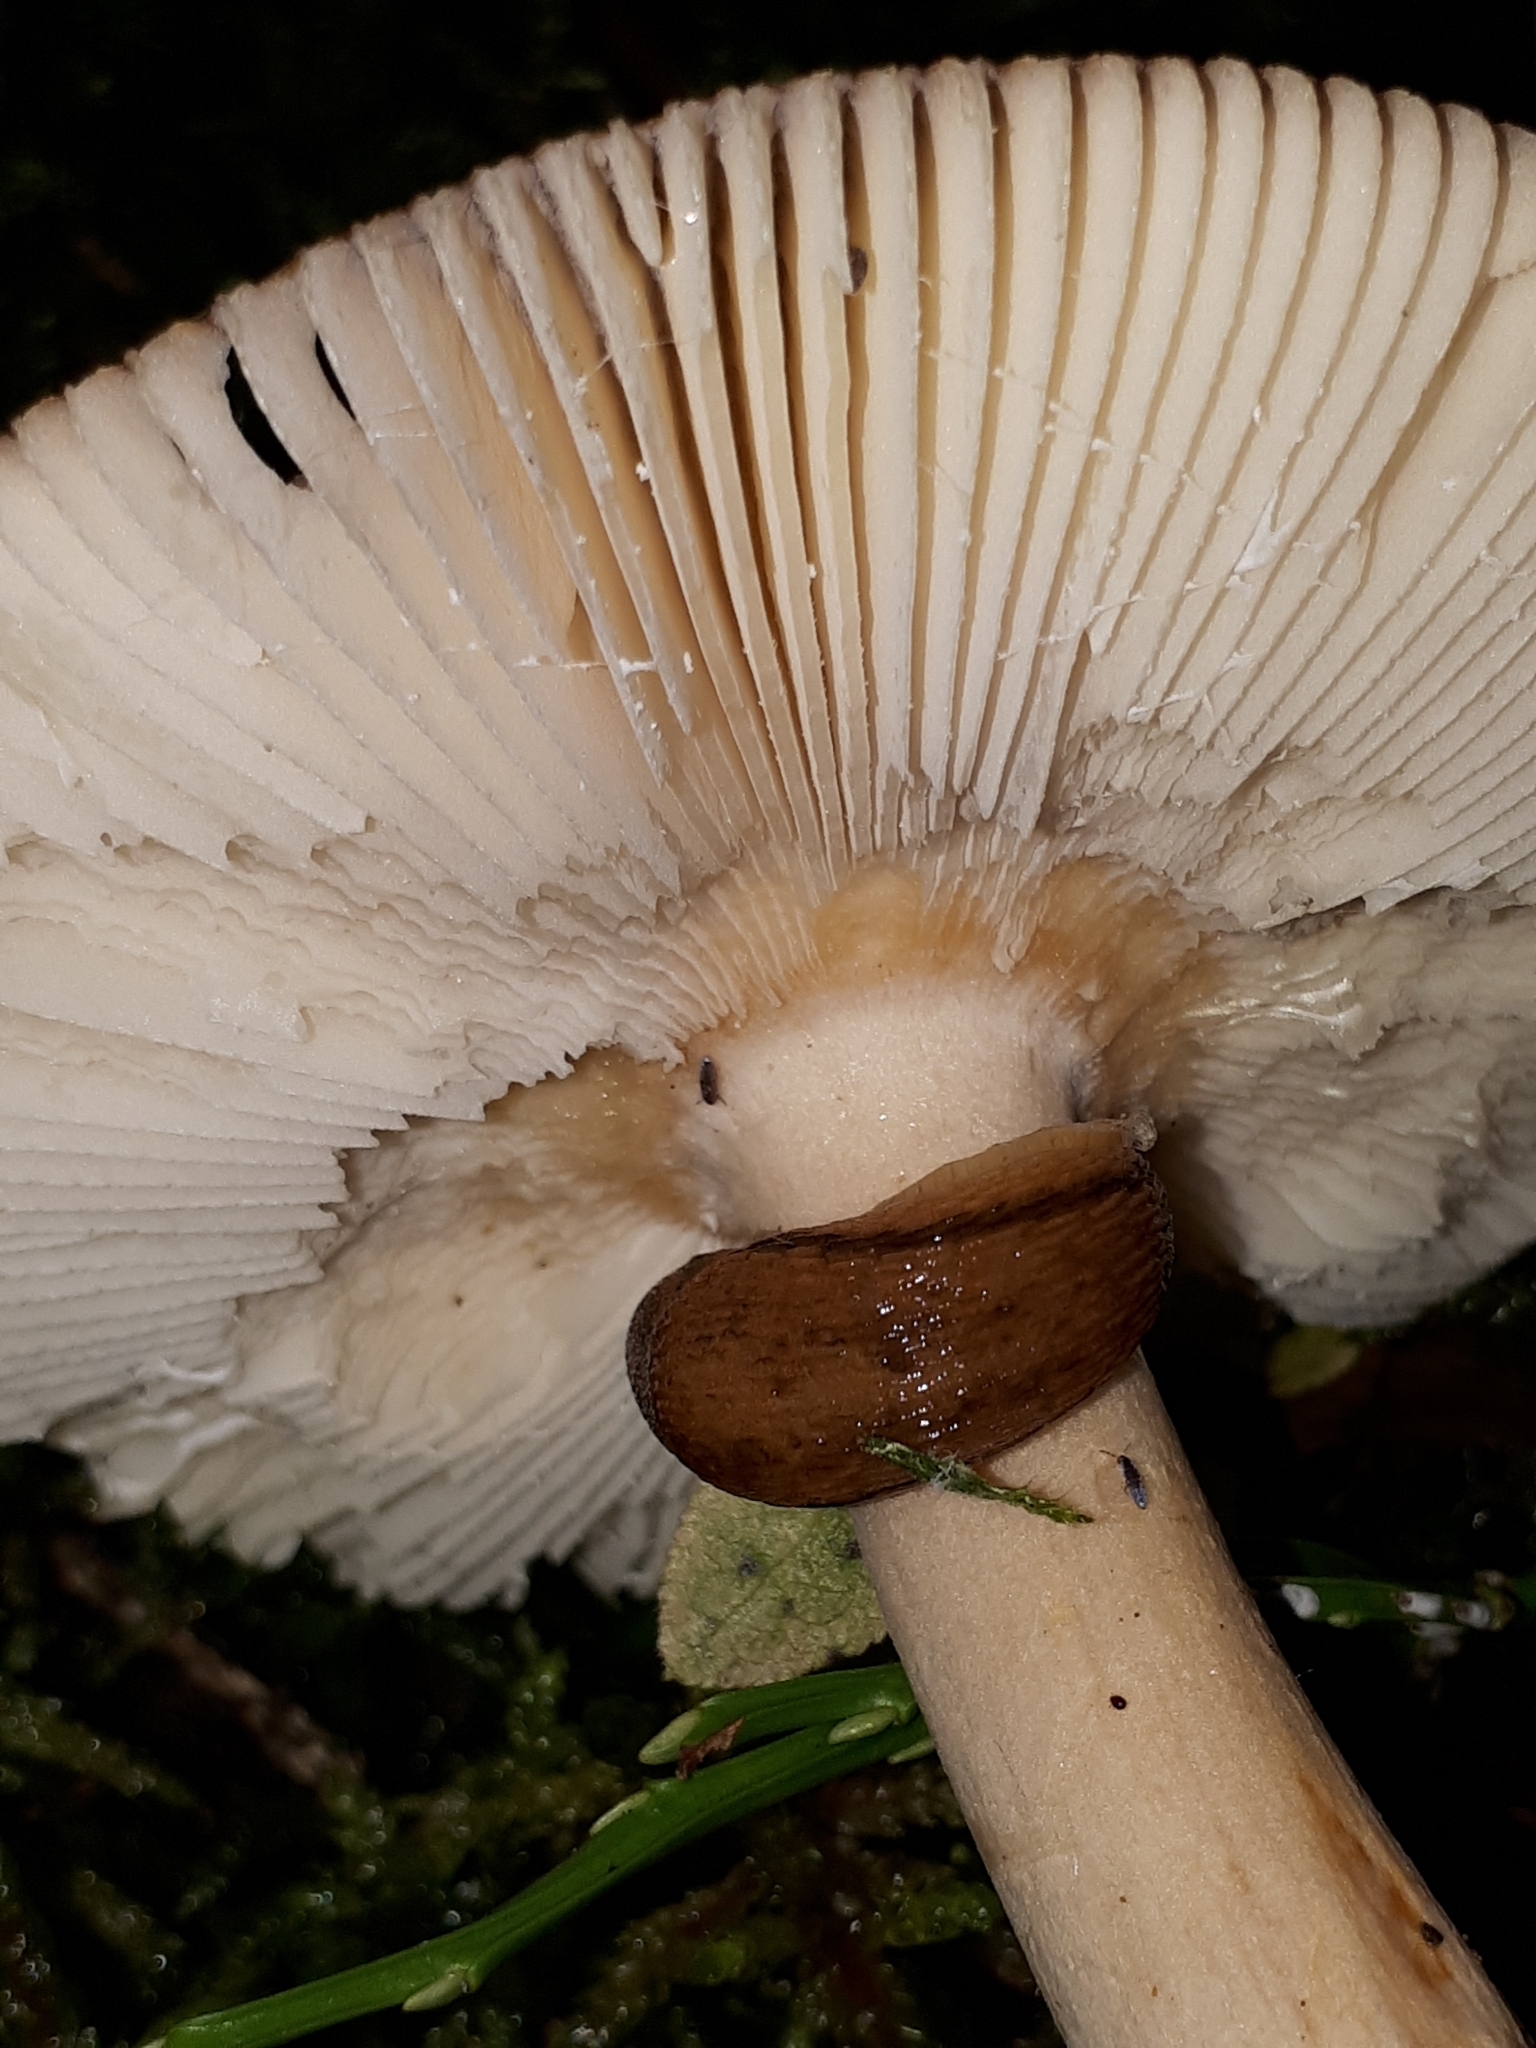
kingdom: Fungi
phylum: Basidiomycota
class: Agaricomycetes
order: Agaricales
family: Amanitaceae
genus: Amanita
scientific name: Amanita fulva
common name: Tawny grisette
